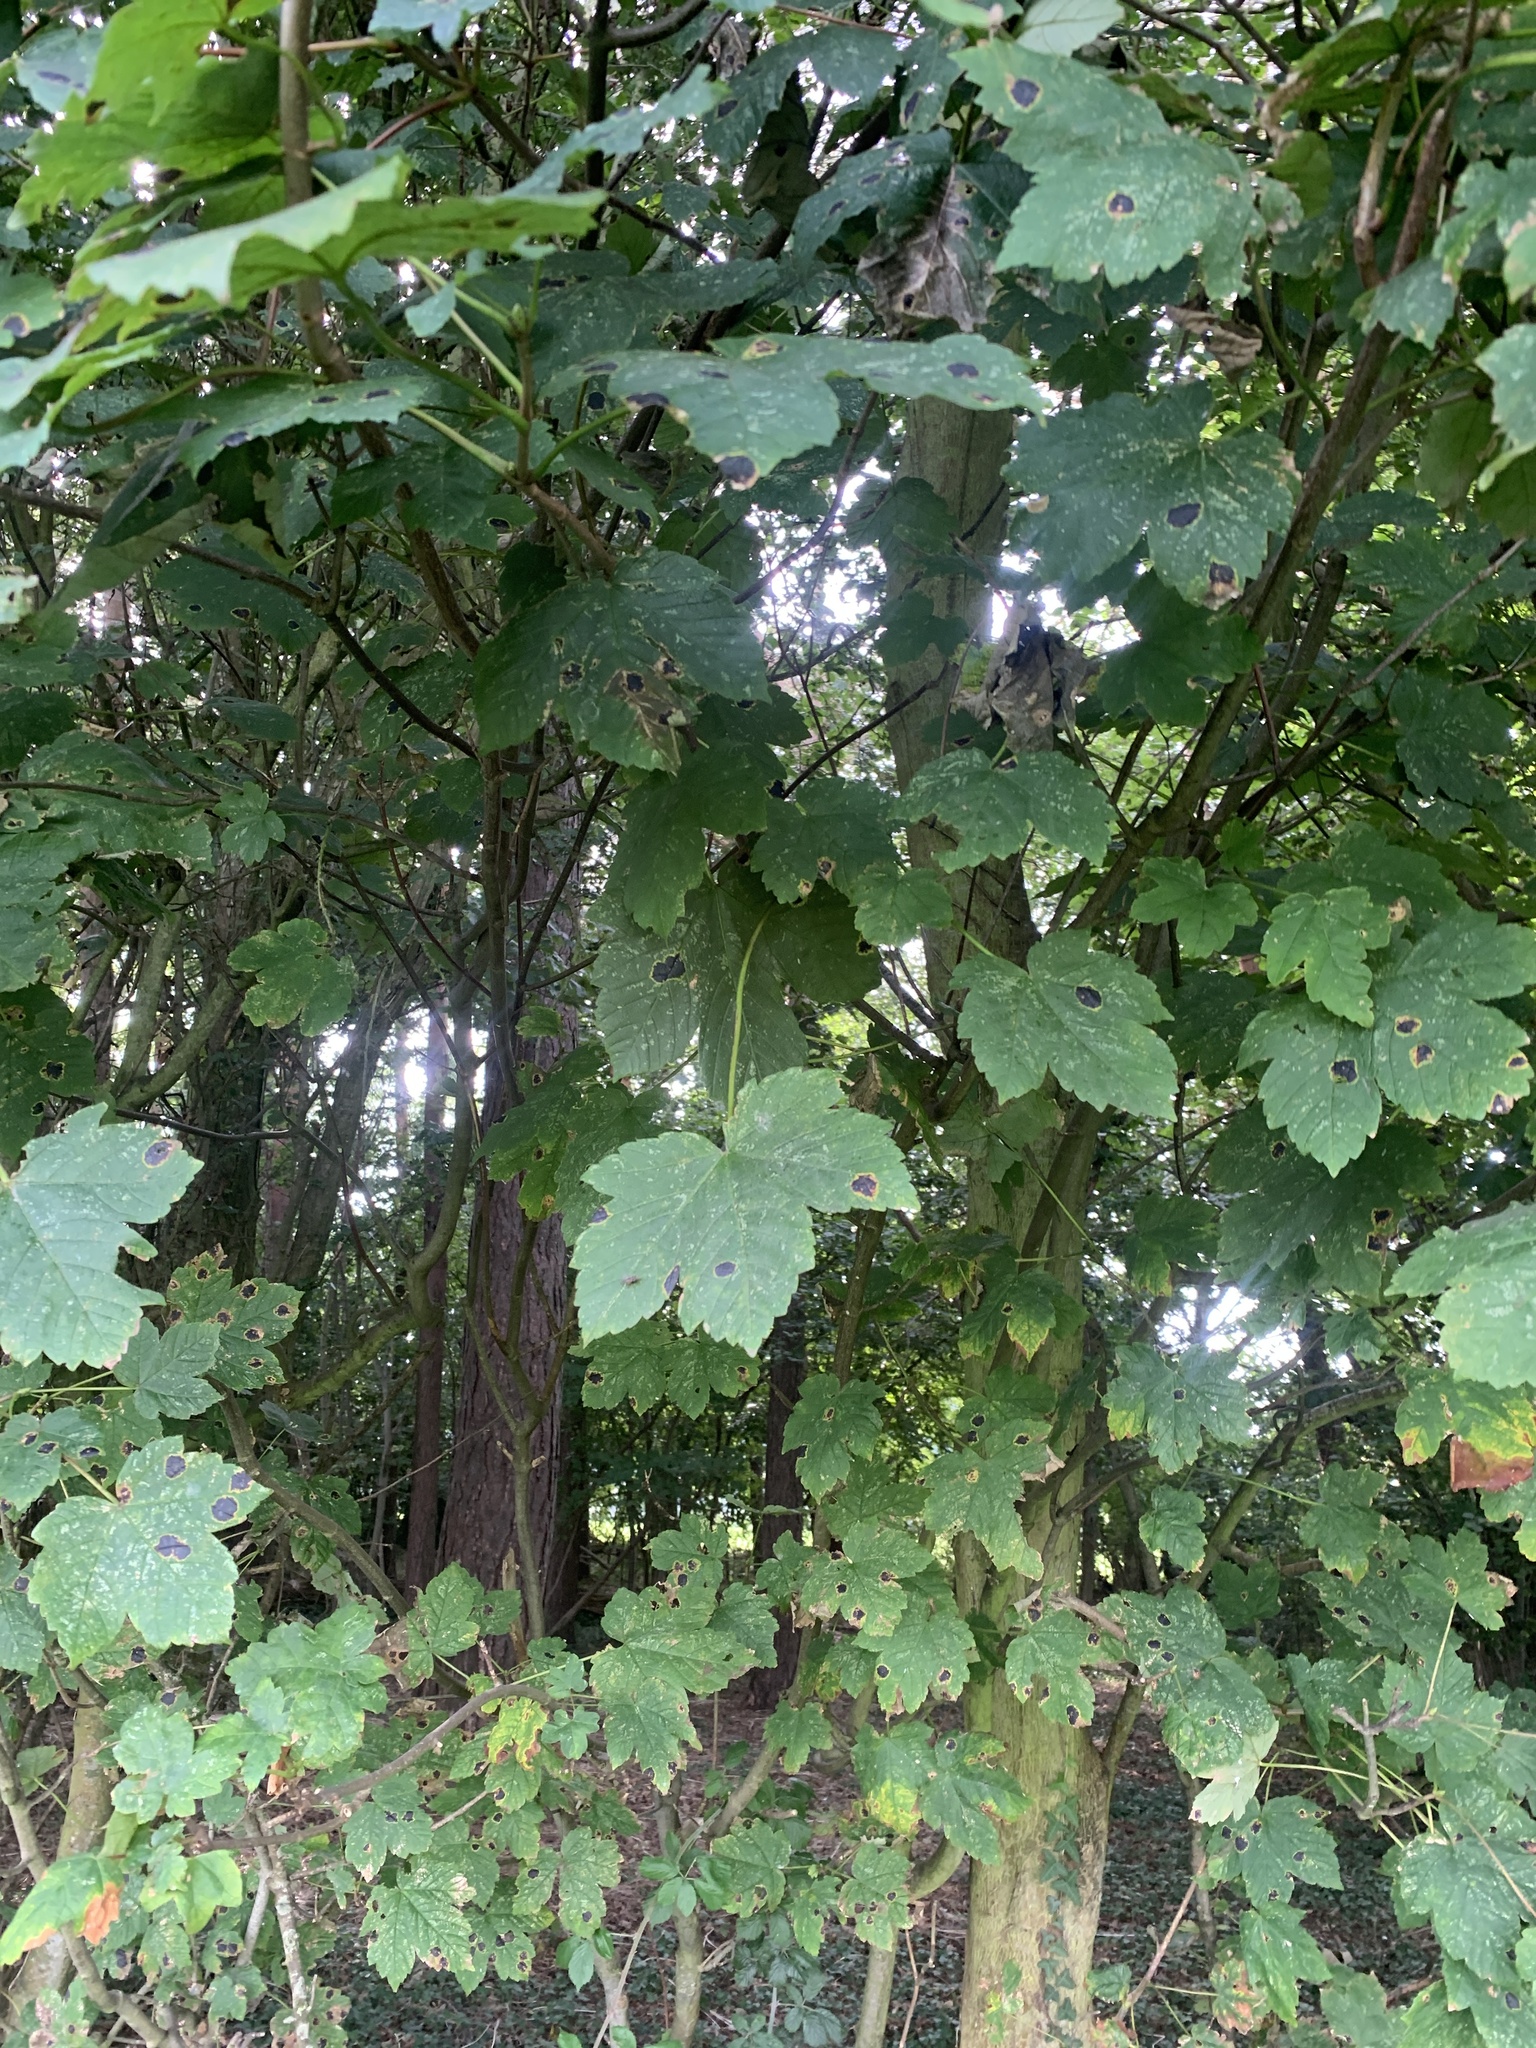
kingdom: Plantae
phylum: Tracheophyta
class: Magnoliopsida
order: Sapindales
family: Sapindaceae
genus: Acer
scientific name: Acer pseudoplatanus
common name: Sycamore
